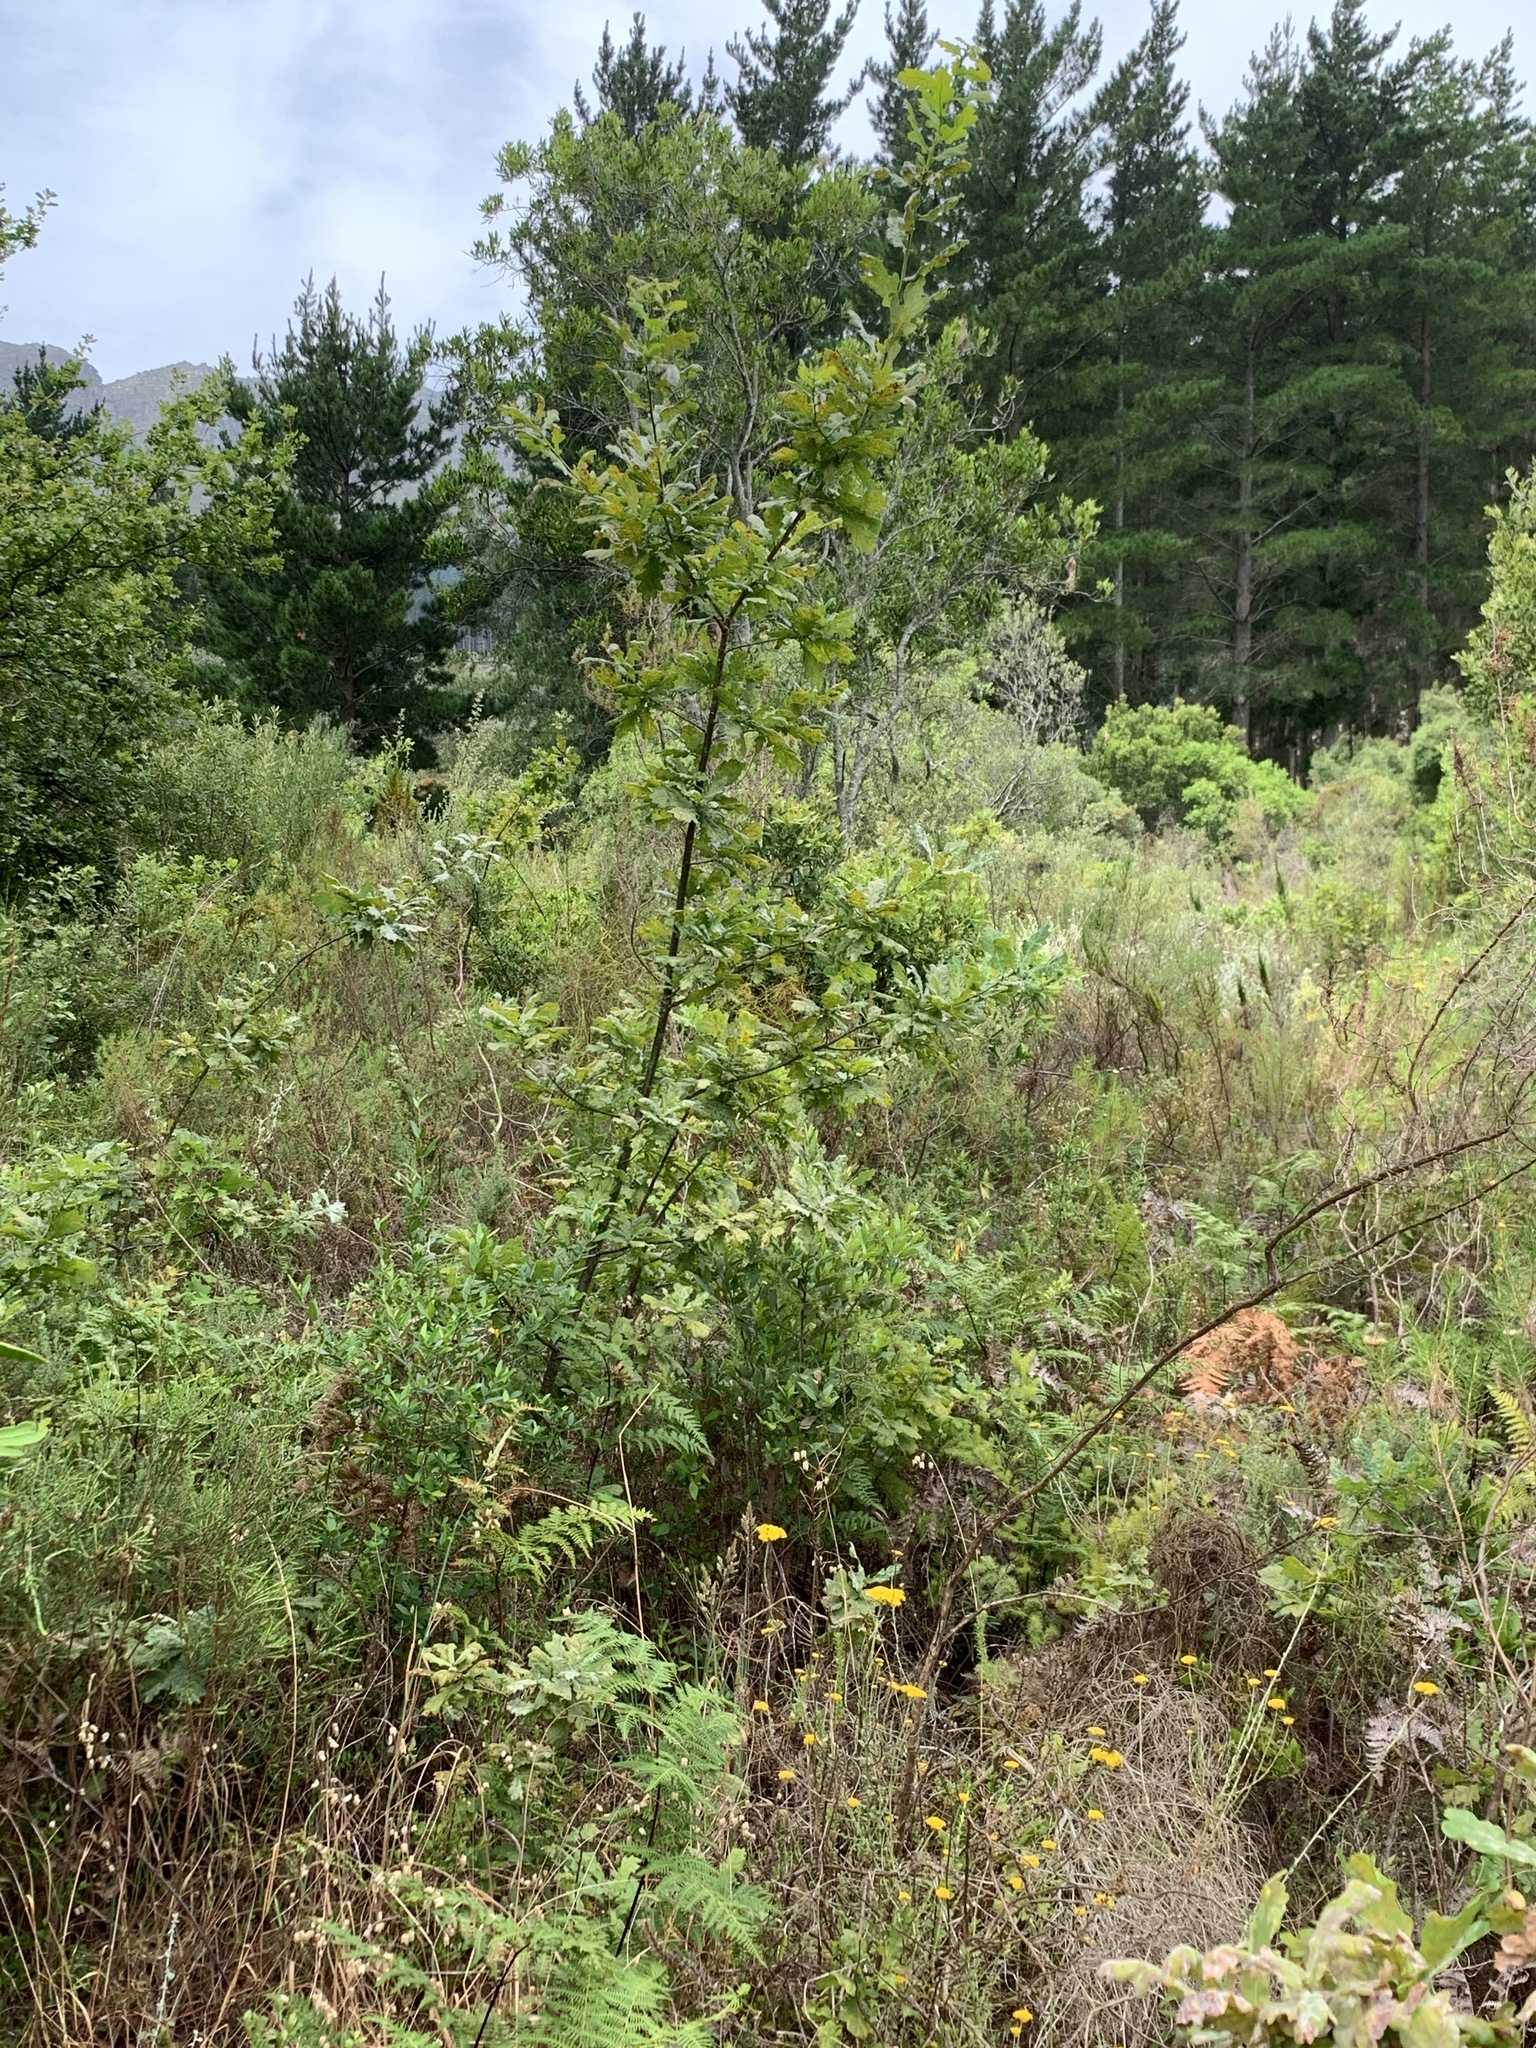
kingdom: Plantae
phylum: Tracheophyta
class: Magnoliopsida
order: Fagales
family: Fagaceae
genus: Quercus
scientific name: Quercus robur
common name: Pedunculate oak
